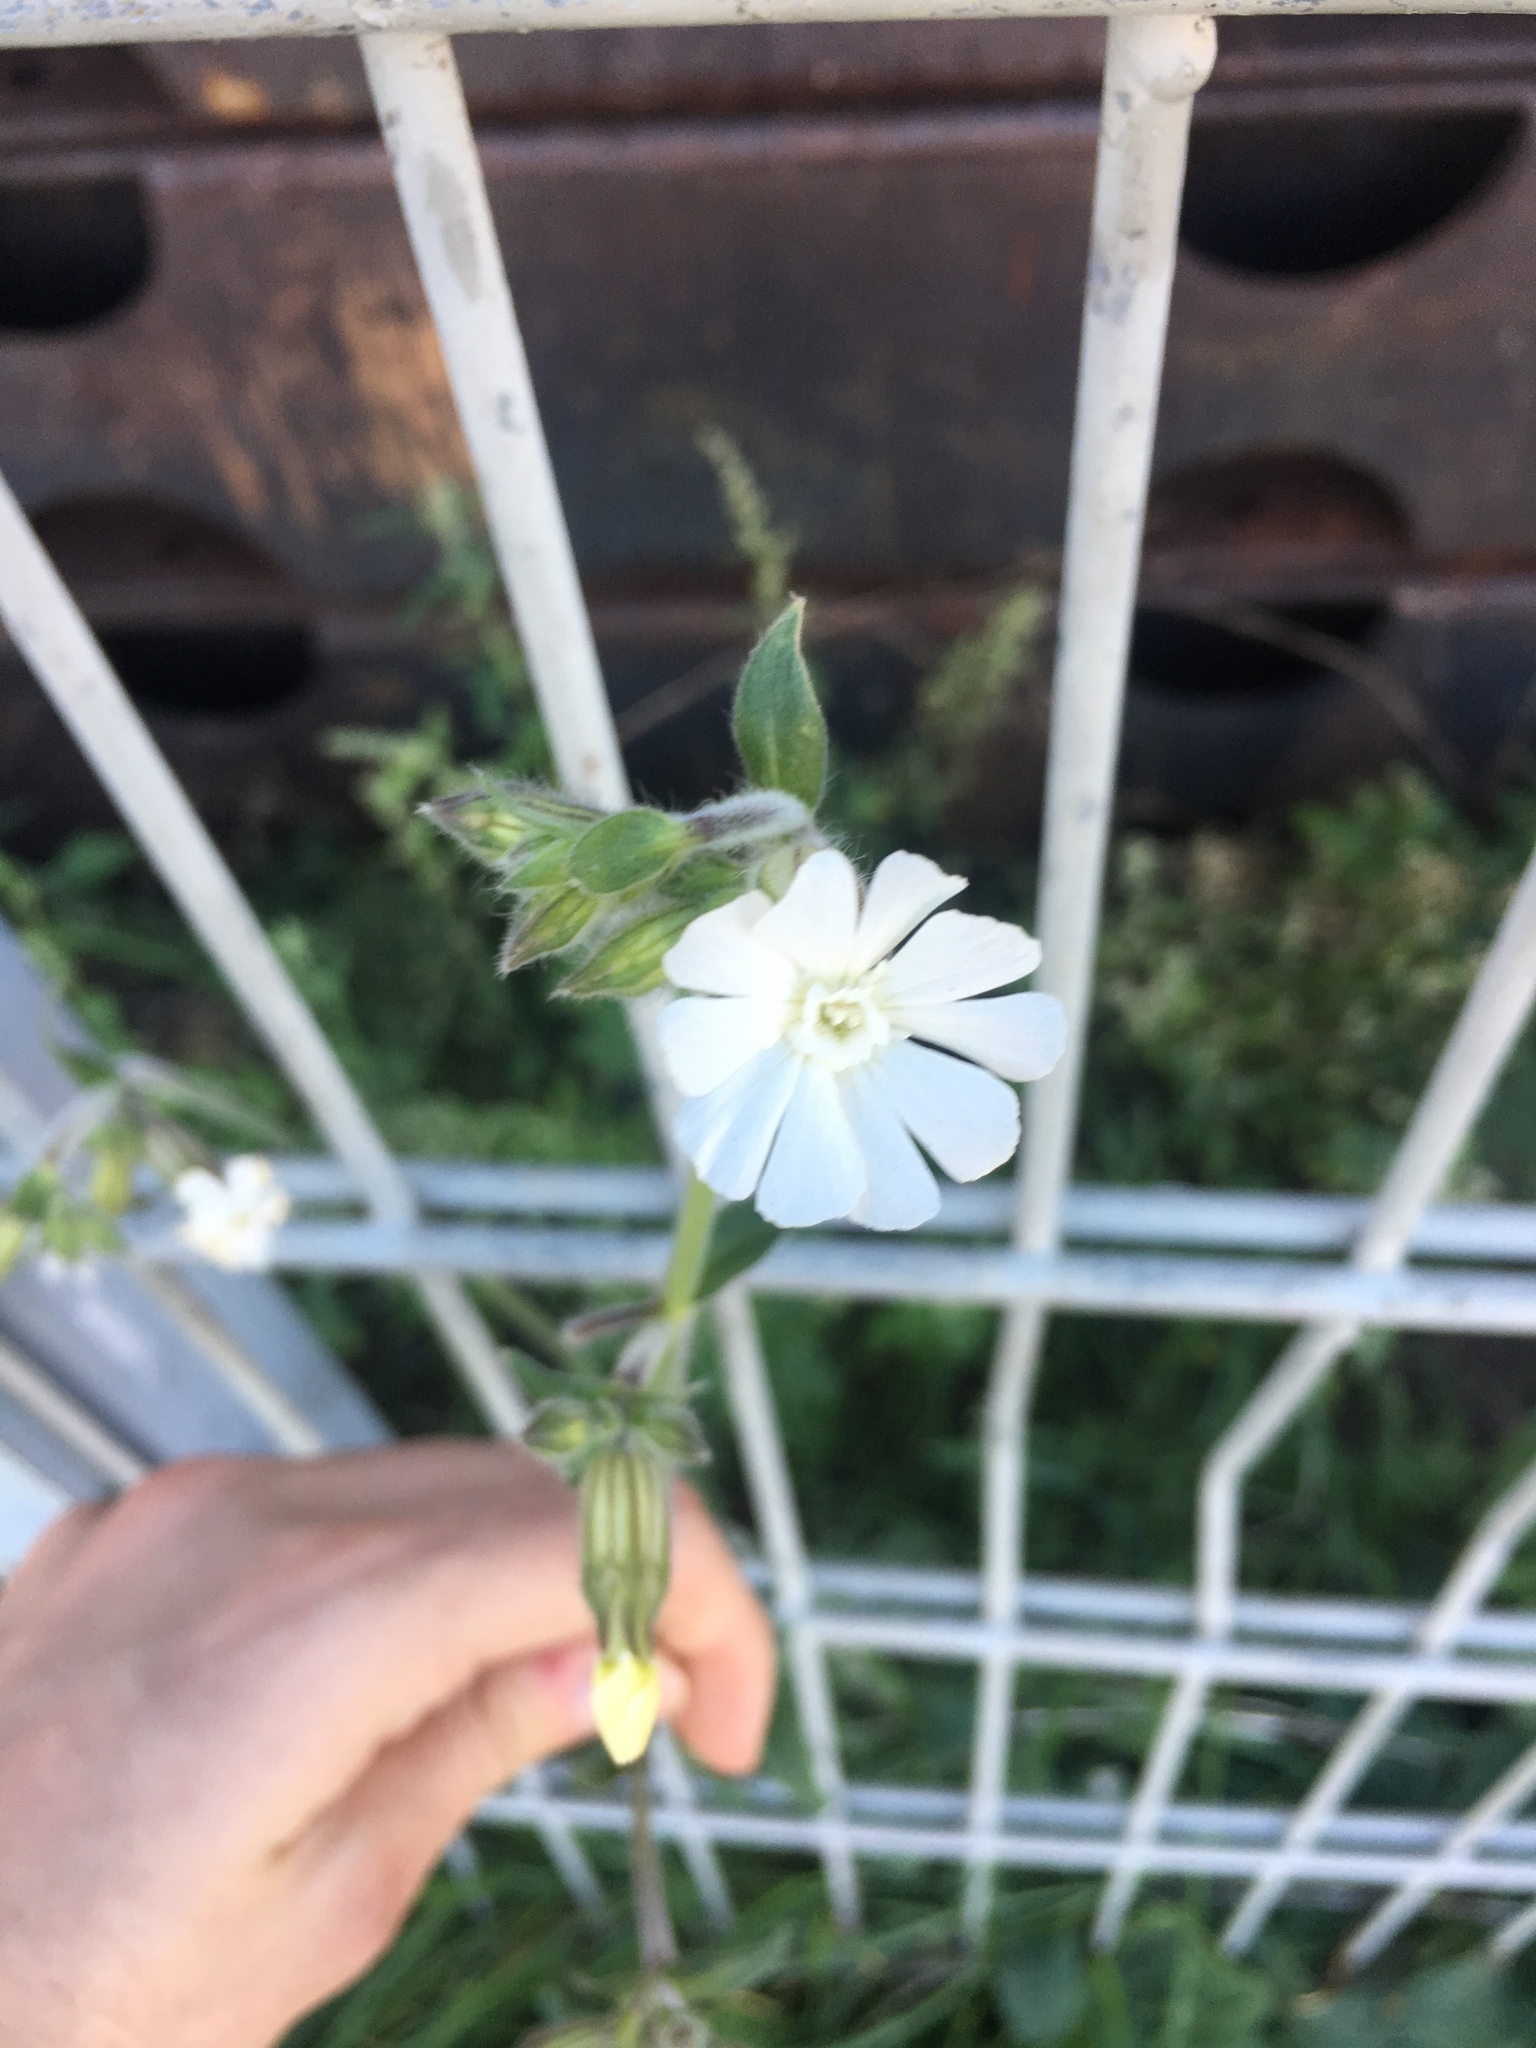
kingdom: Plantae
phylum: Tracheophyta
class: Magnoliopsida
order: Caryophyllales
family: Caryophyllaceae
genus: Silene
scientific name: Silene latifolia
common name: White campion
